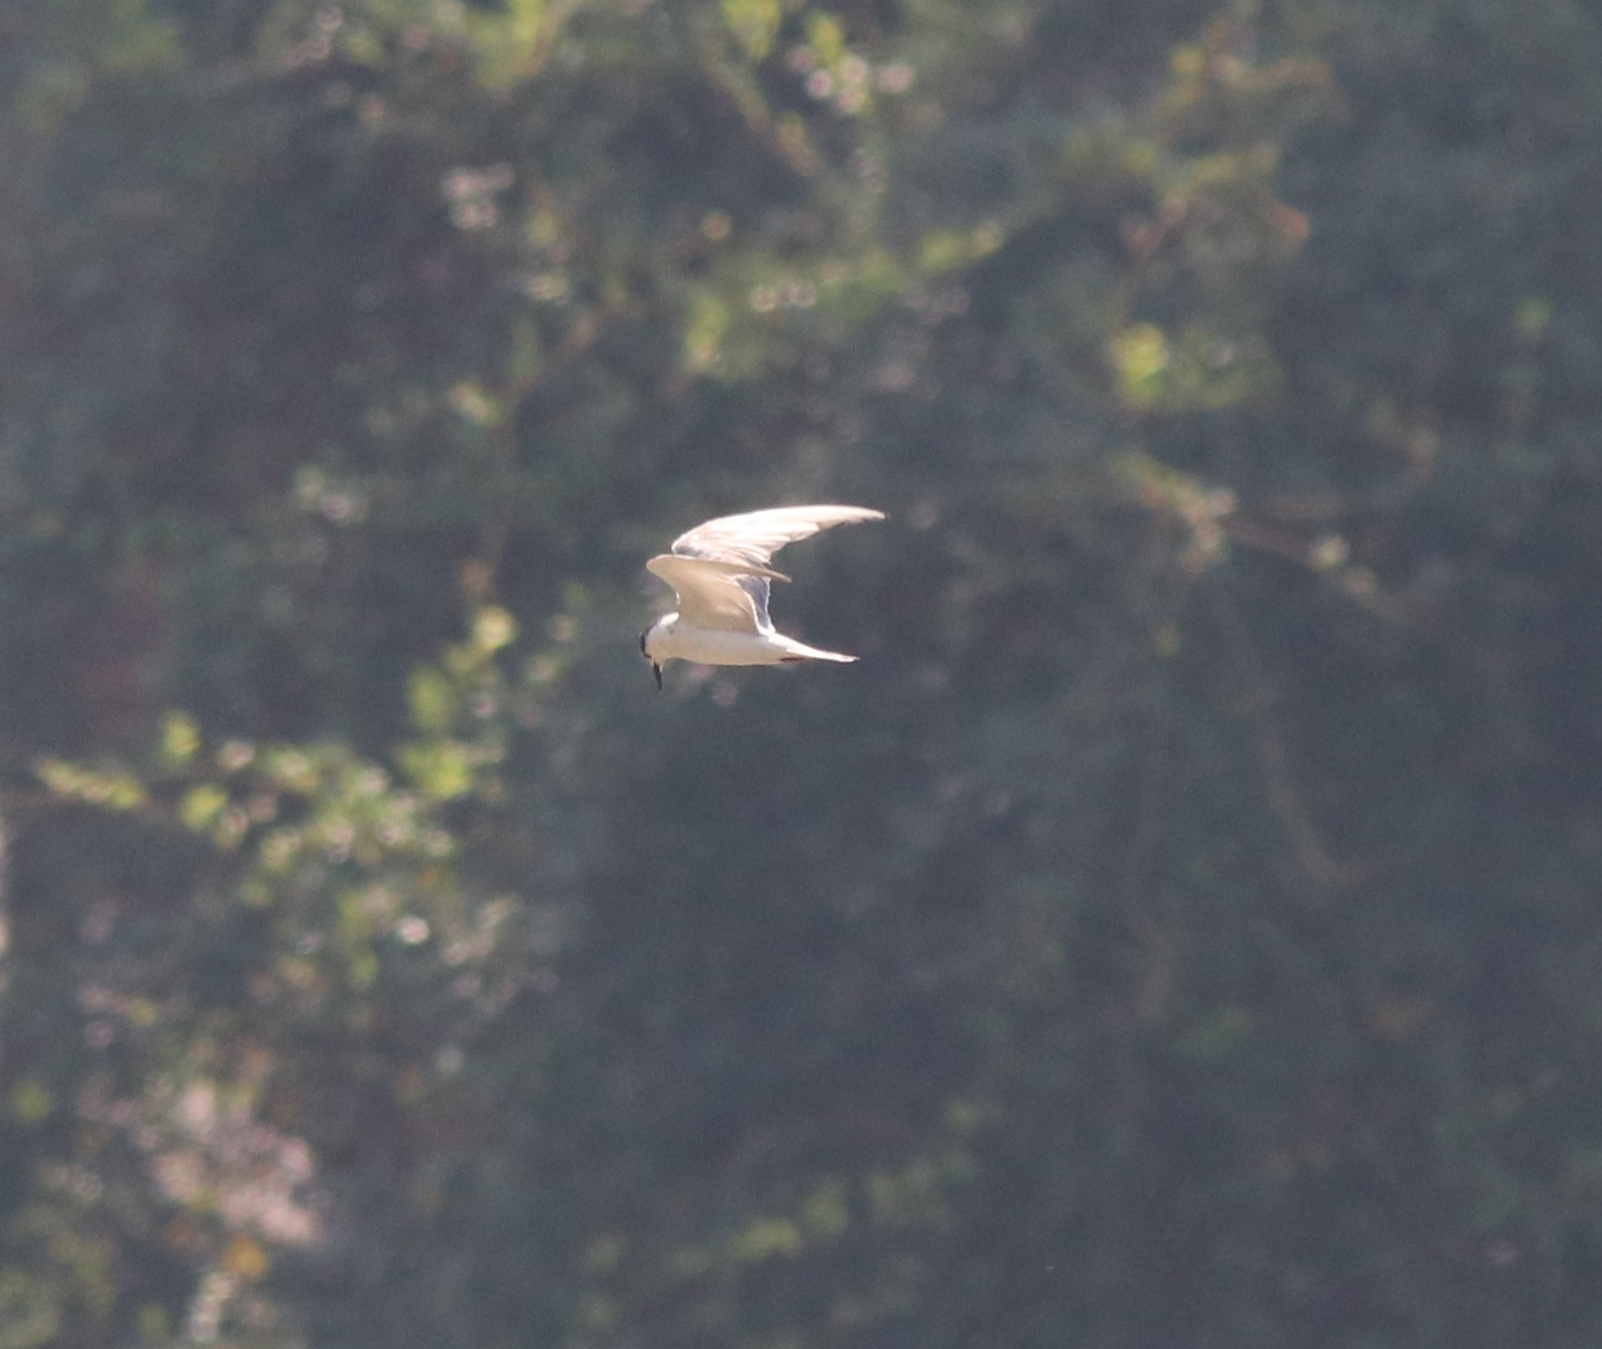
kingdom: Animalia
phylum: Chordata
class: Aves
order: Charadriiformes
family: Laridae
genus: Chlidonias
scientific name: Chlidonias hybrida
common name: Whiskered tern
